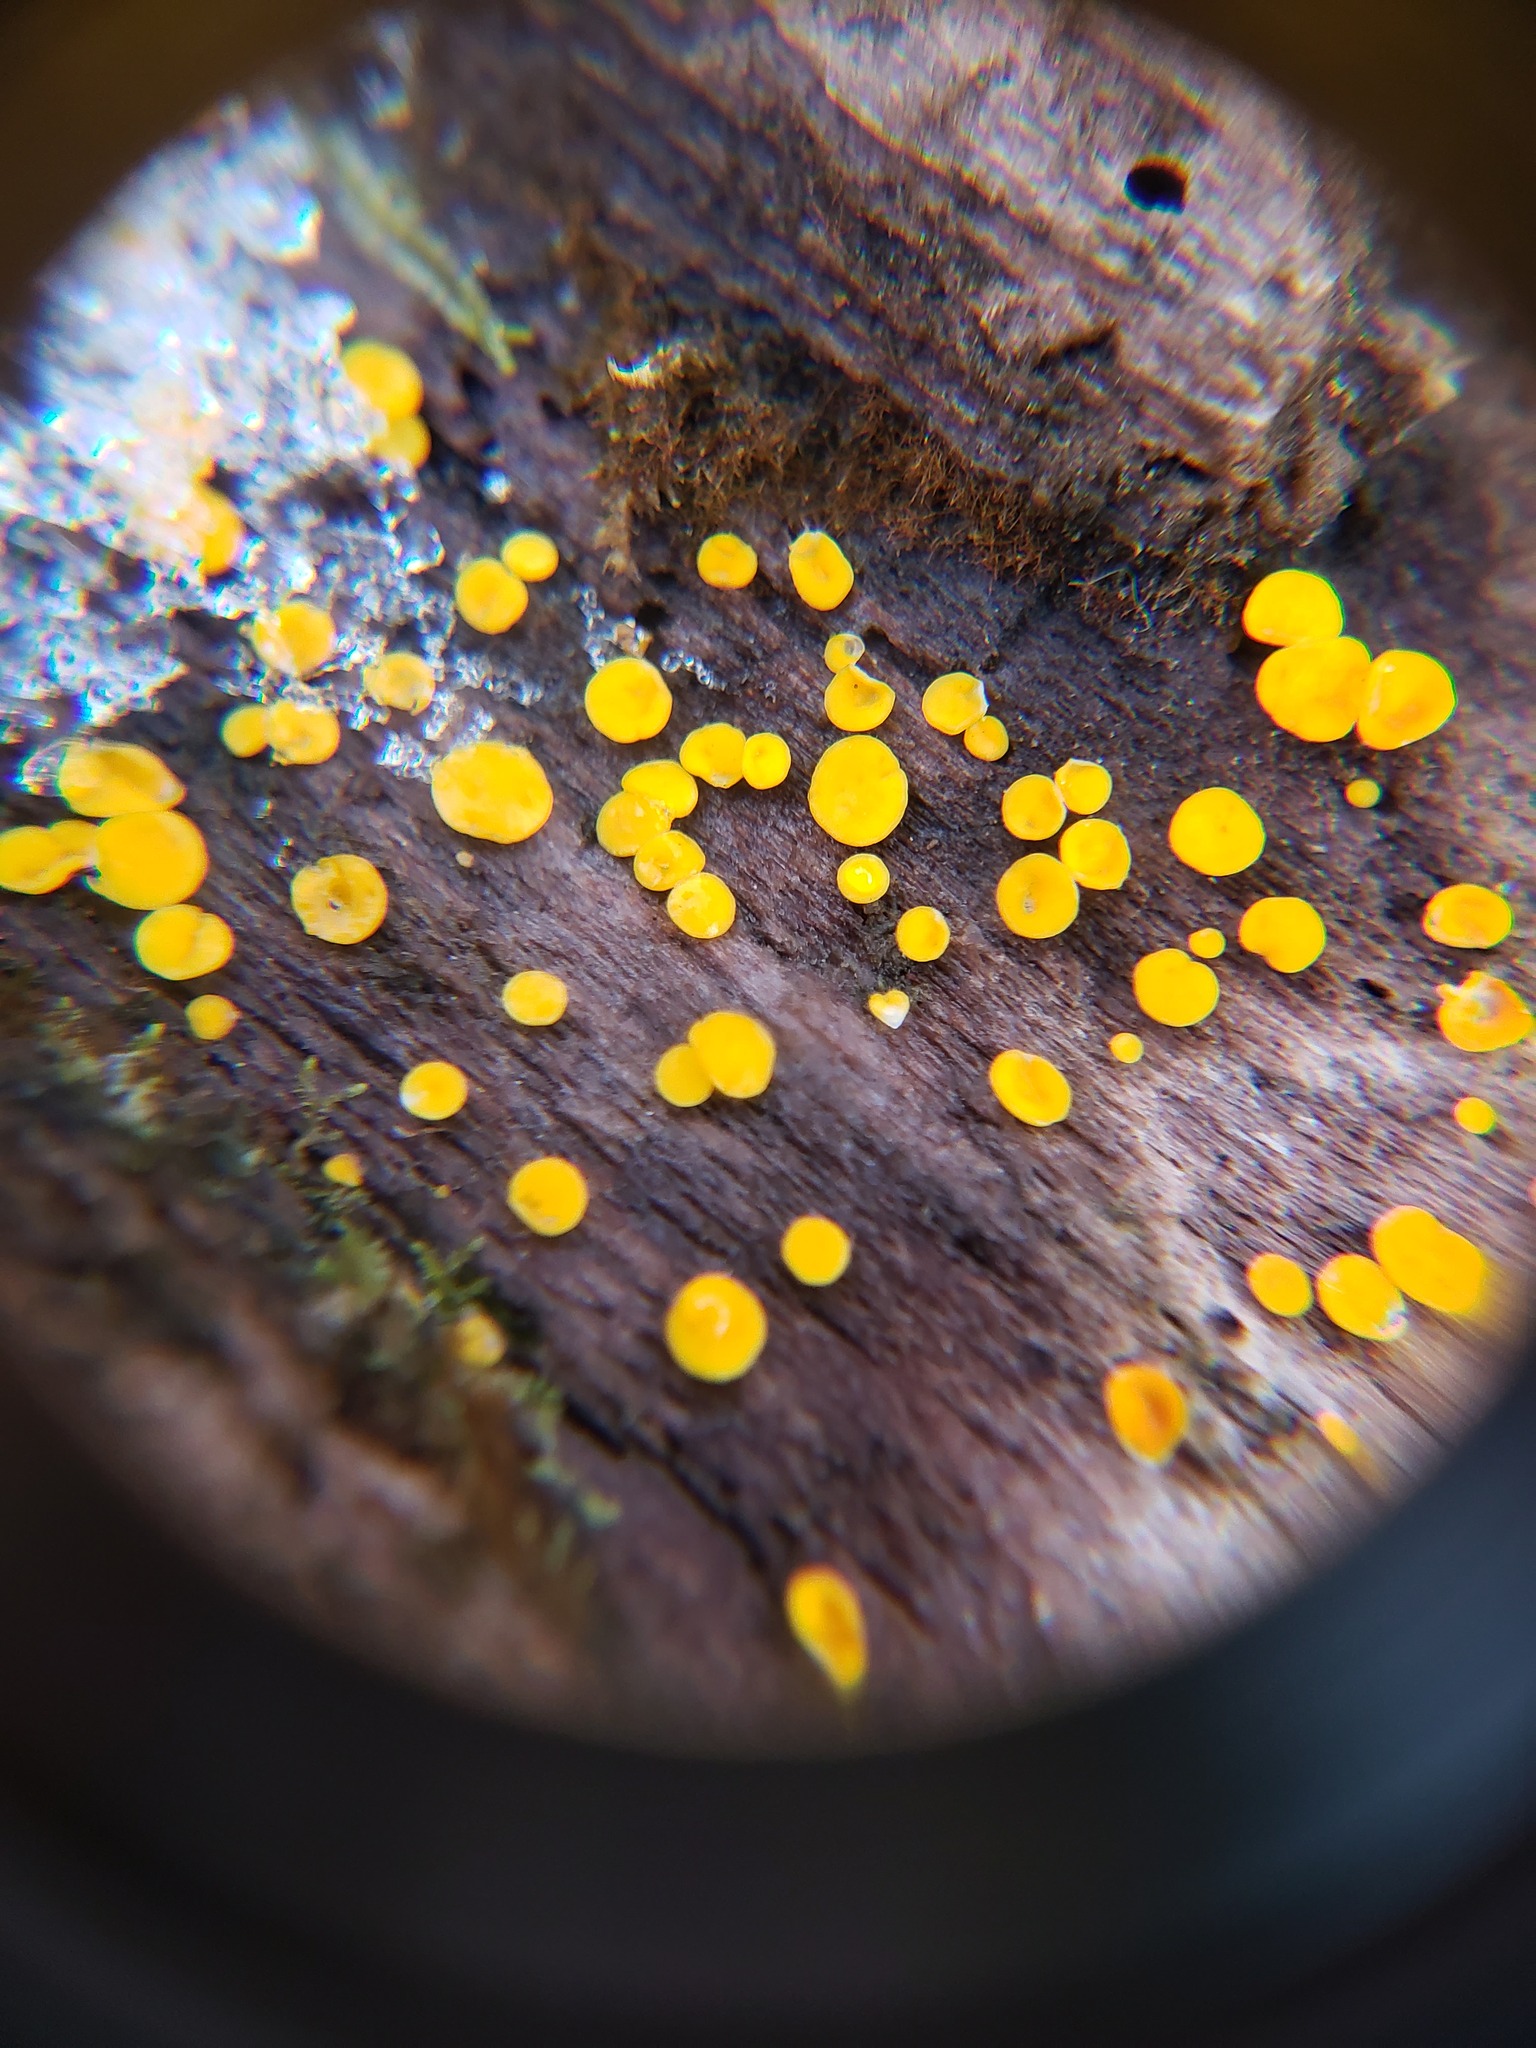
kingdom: Fungi
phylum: Ascomycota
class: Leotiomycetes
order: Helotiales
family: Pezizellaceae
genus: Calycina
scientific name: Calycina citrina
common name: Yellow fairy cups
